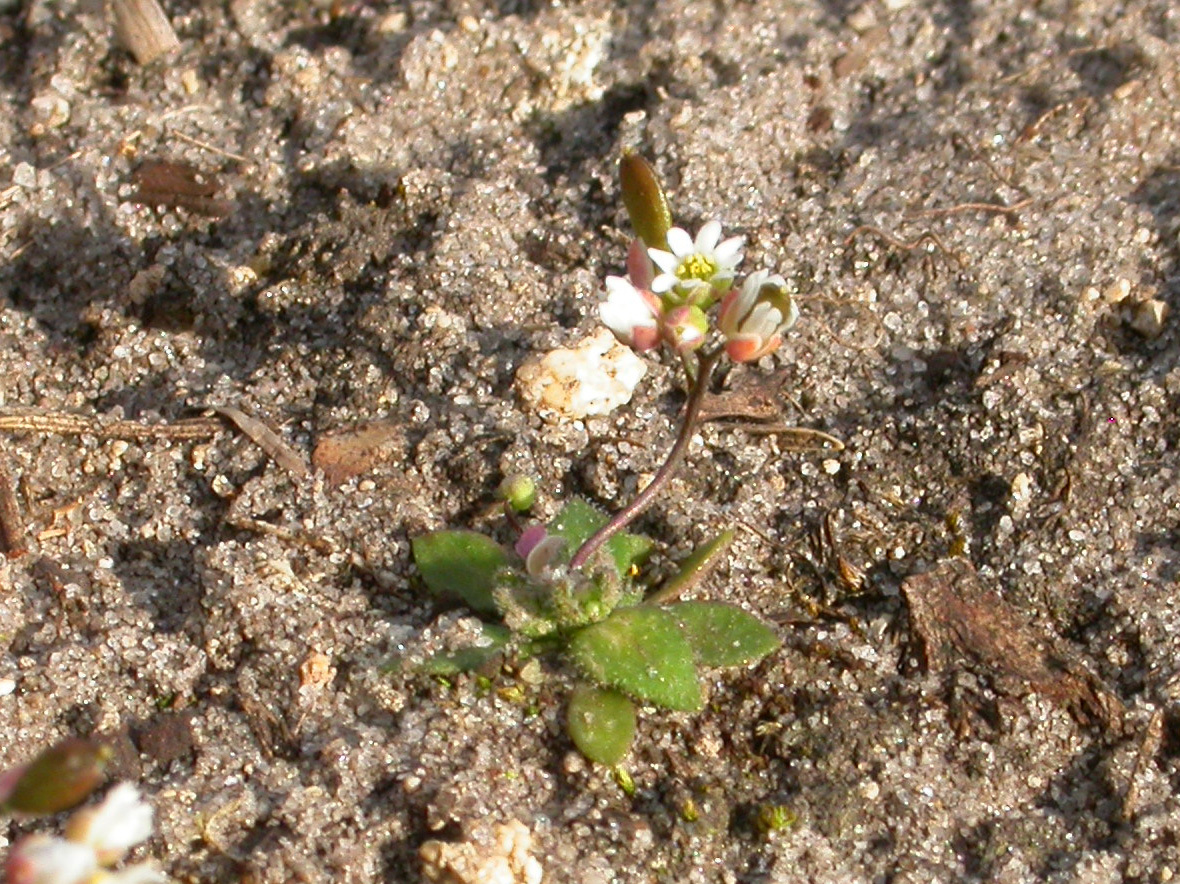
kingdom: Plantae
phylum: Tracheophyta
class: Magnoliopsida
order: Brassicales
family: Brassicaceae
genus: Draba
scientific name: Draba verna
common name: Spring draba
